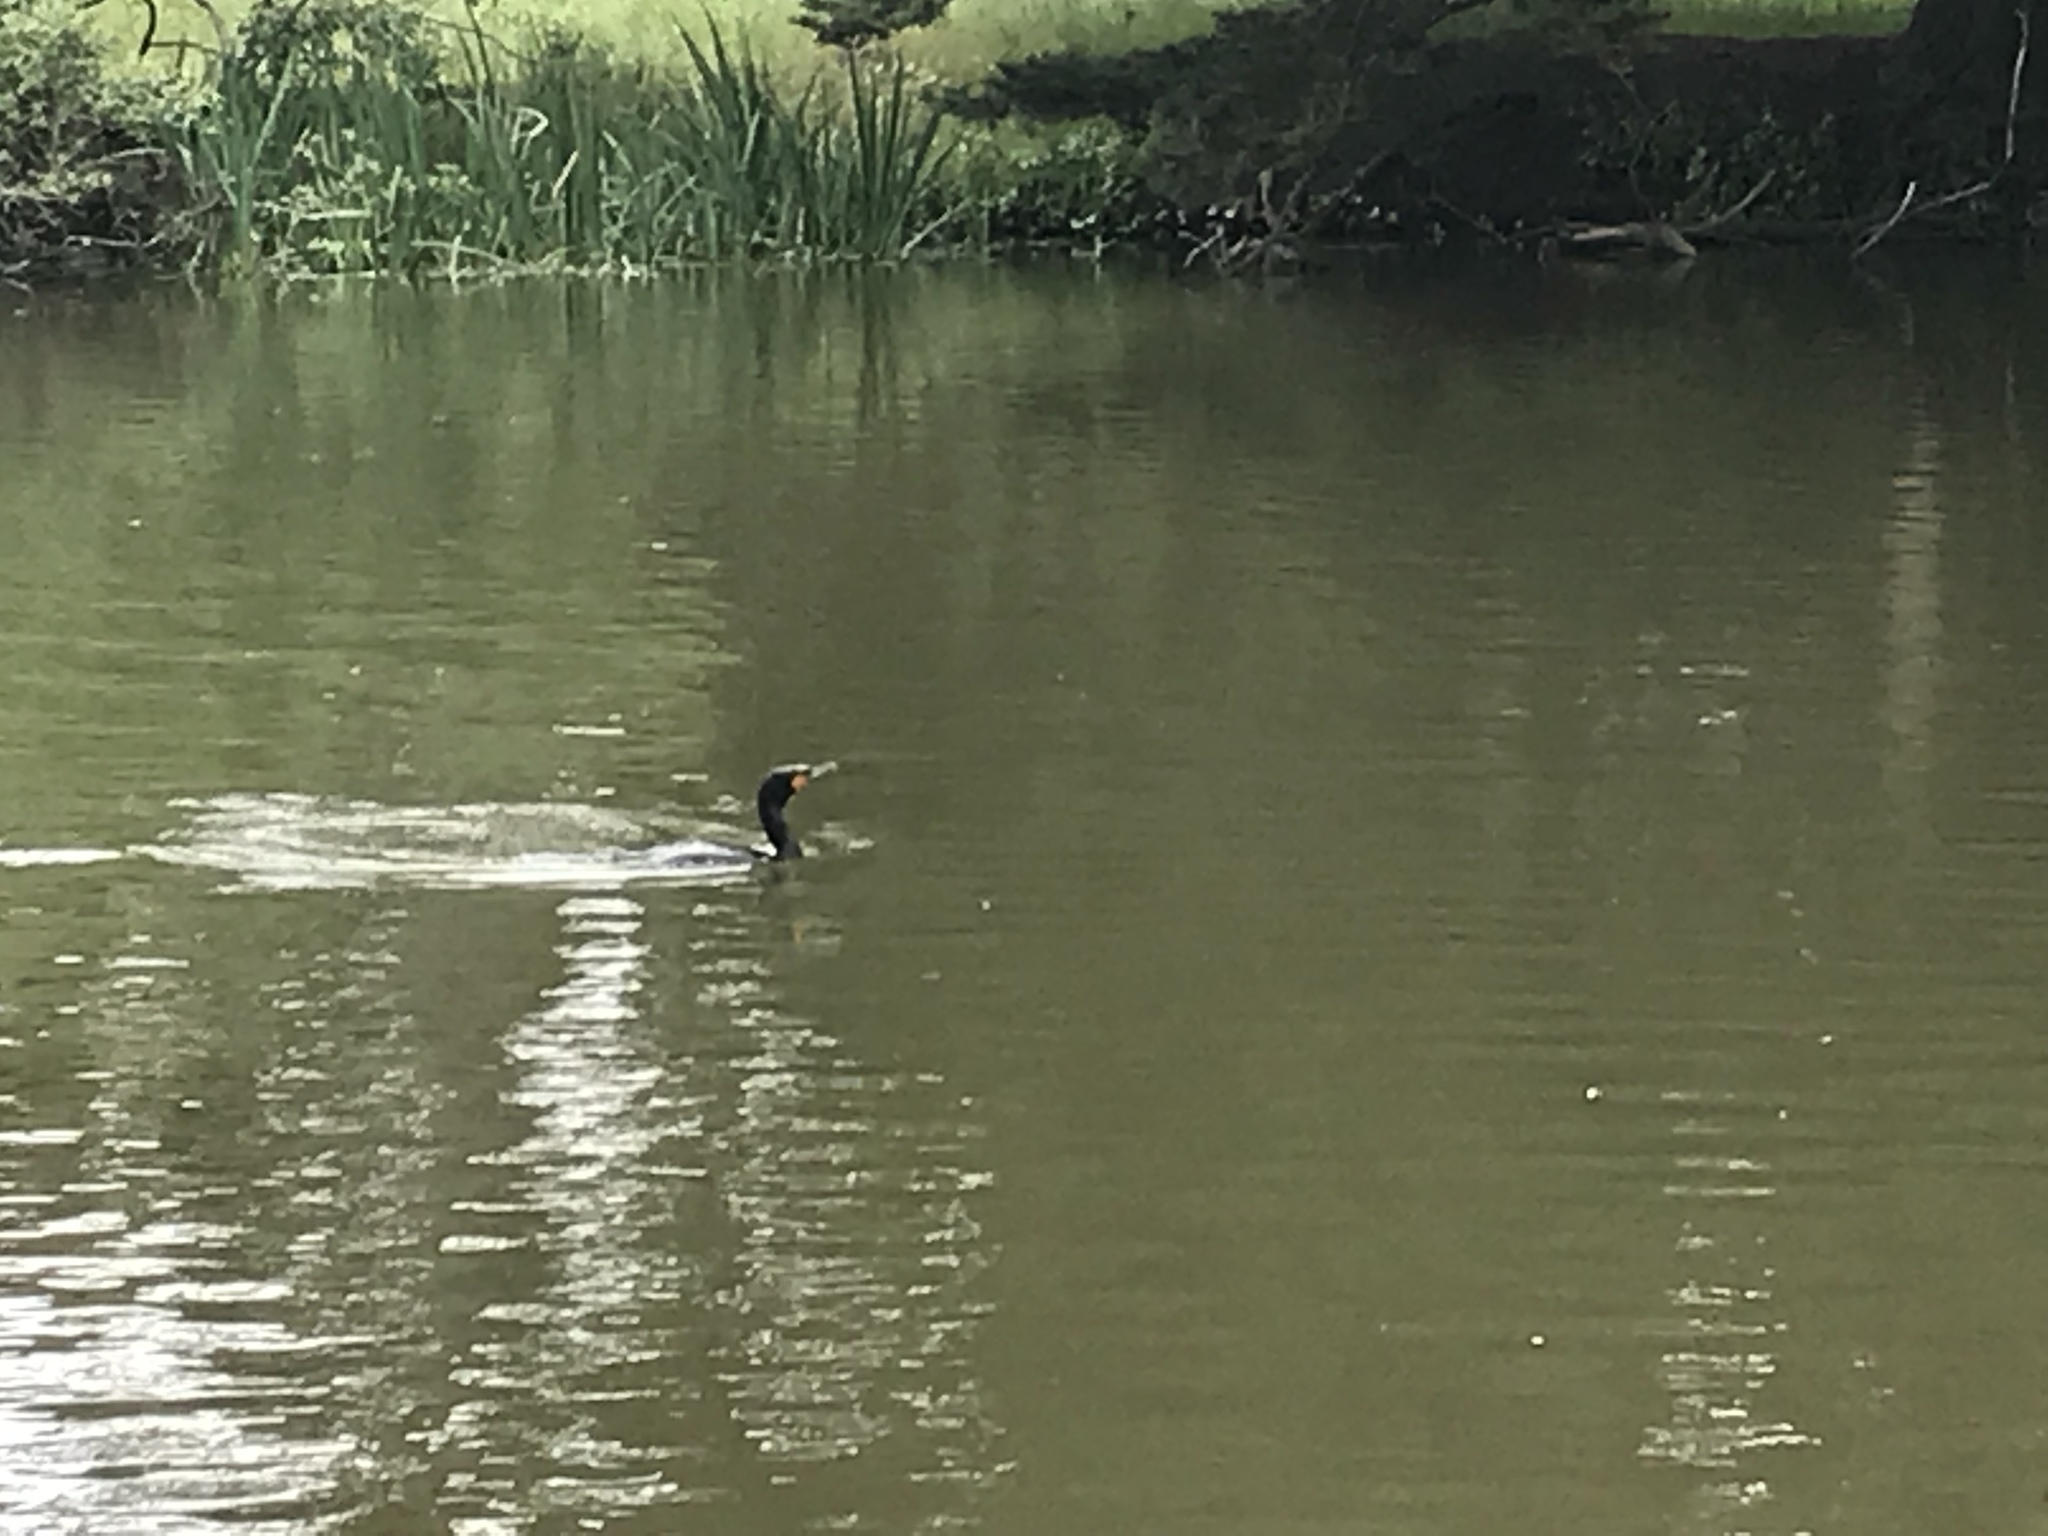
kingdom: Animalia
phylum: Chordata
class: Aves
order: Suliformes
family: Phalacrocoracidae
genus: Phalacrocorax
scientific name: Phalacrocorax auritus
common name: Double-crested cormorant
